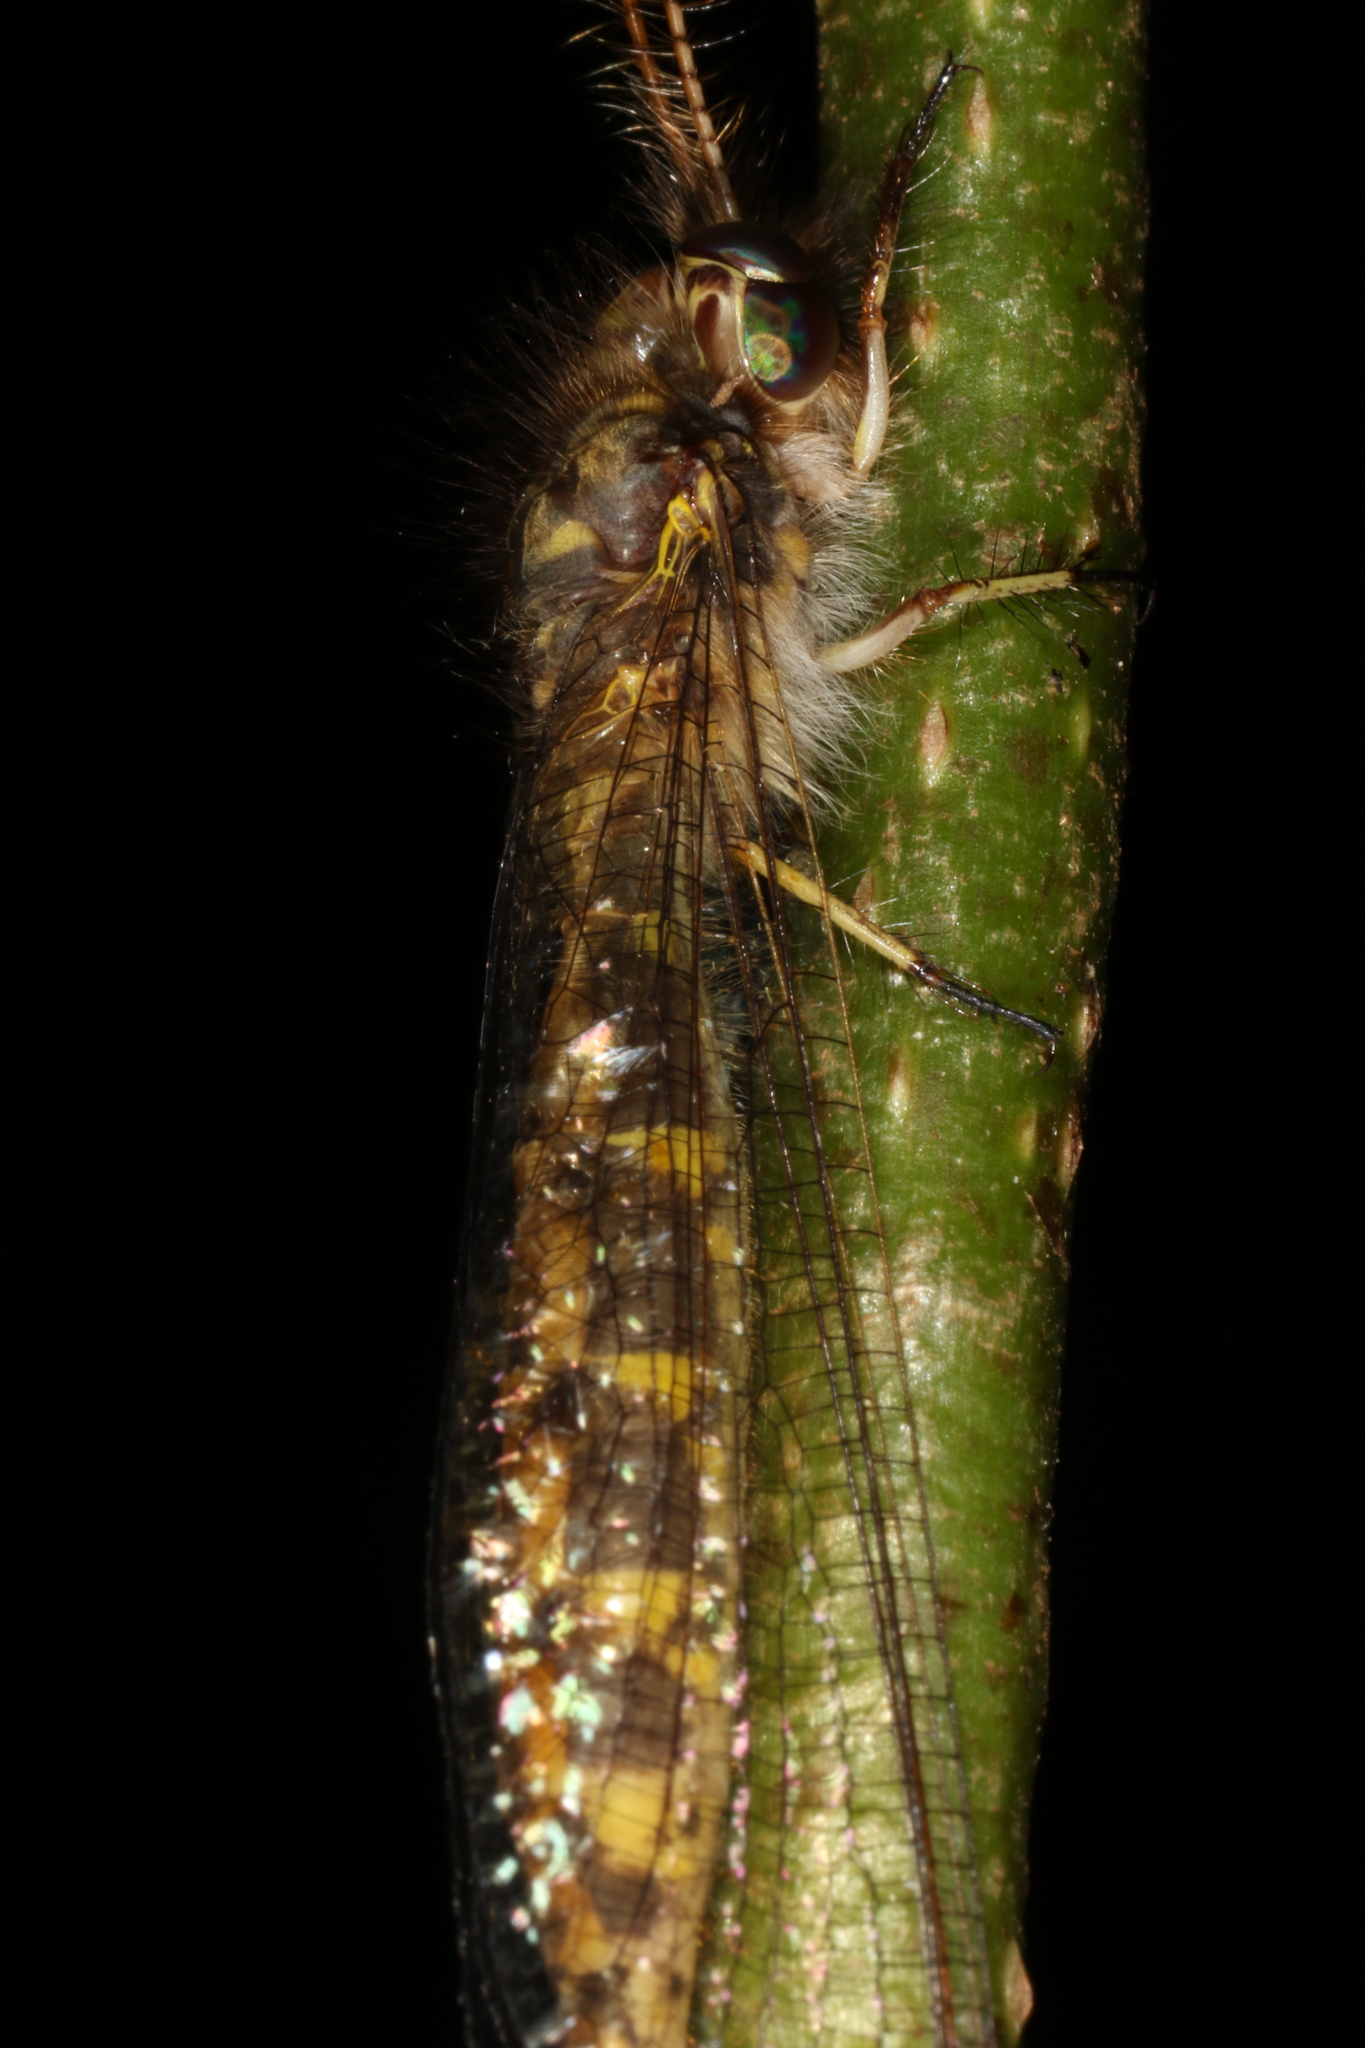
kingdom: Animalia
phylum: Arthropoda
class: Insecta
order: Neuroptera
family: Ascalaphidae
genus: Ameropterus
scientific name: Ameropterus versicolor
